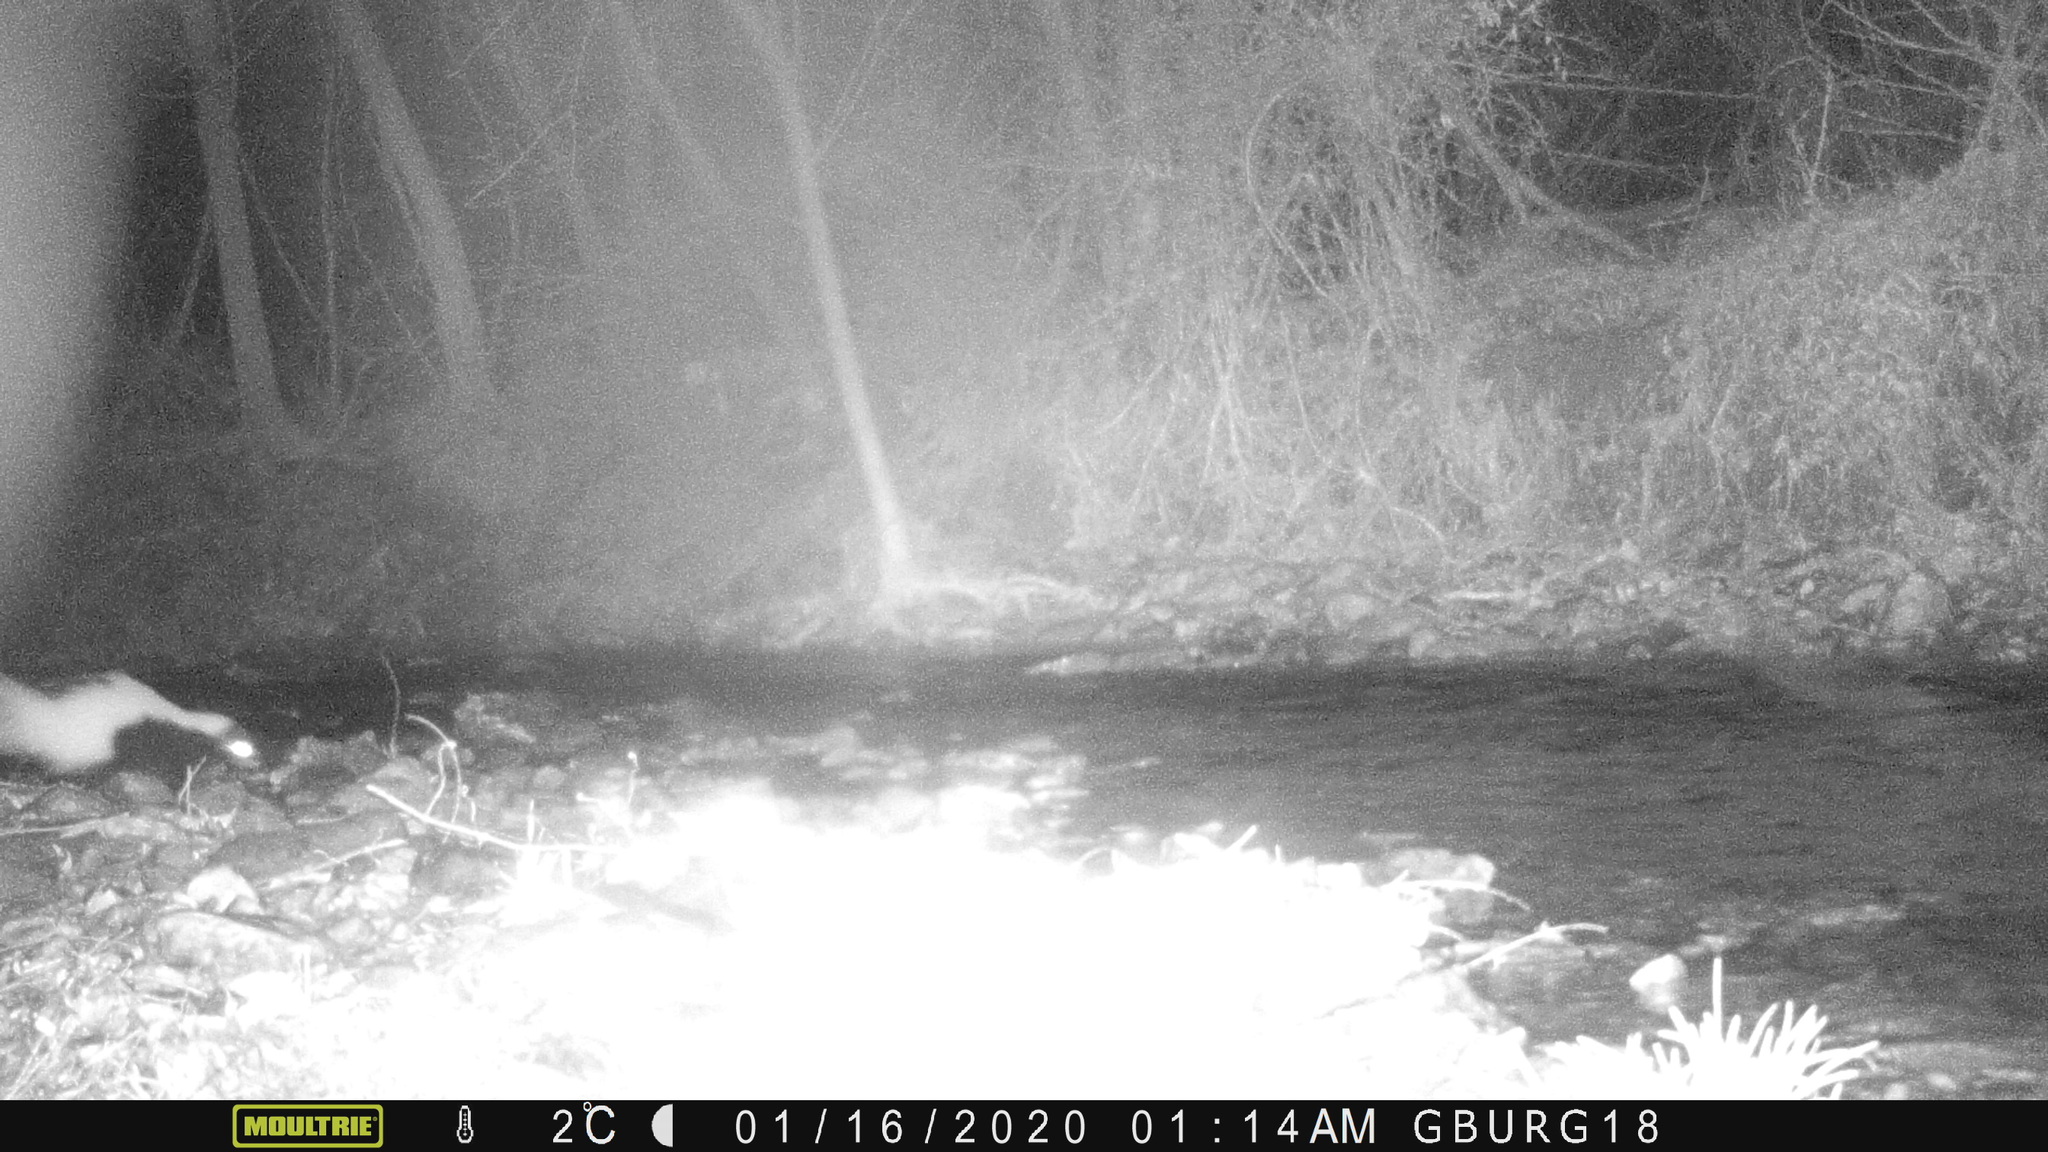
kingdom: Animalia
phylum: Chordata
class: Mammalia
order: Carnivora
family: Mephitidae
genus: Mephitis
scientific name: Mephitis mephitis
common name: Striped skunk
